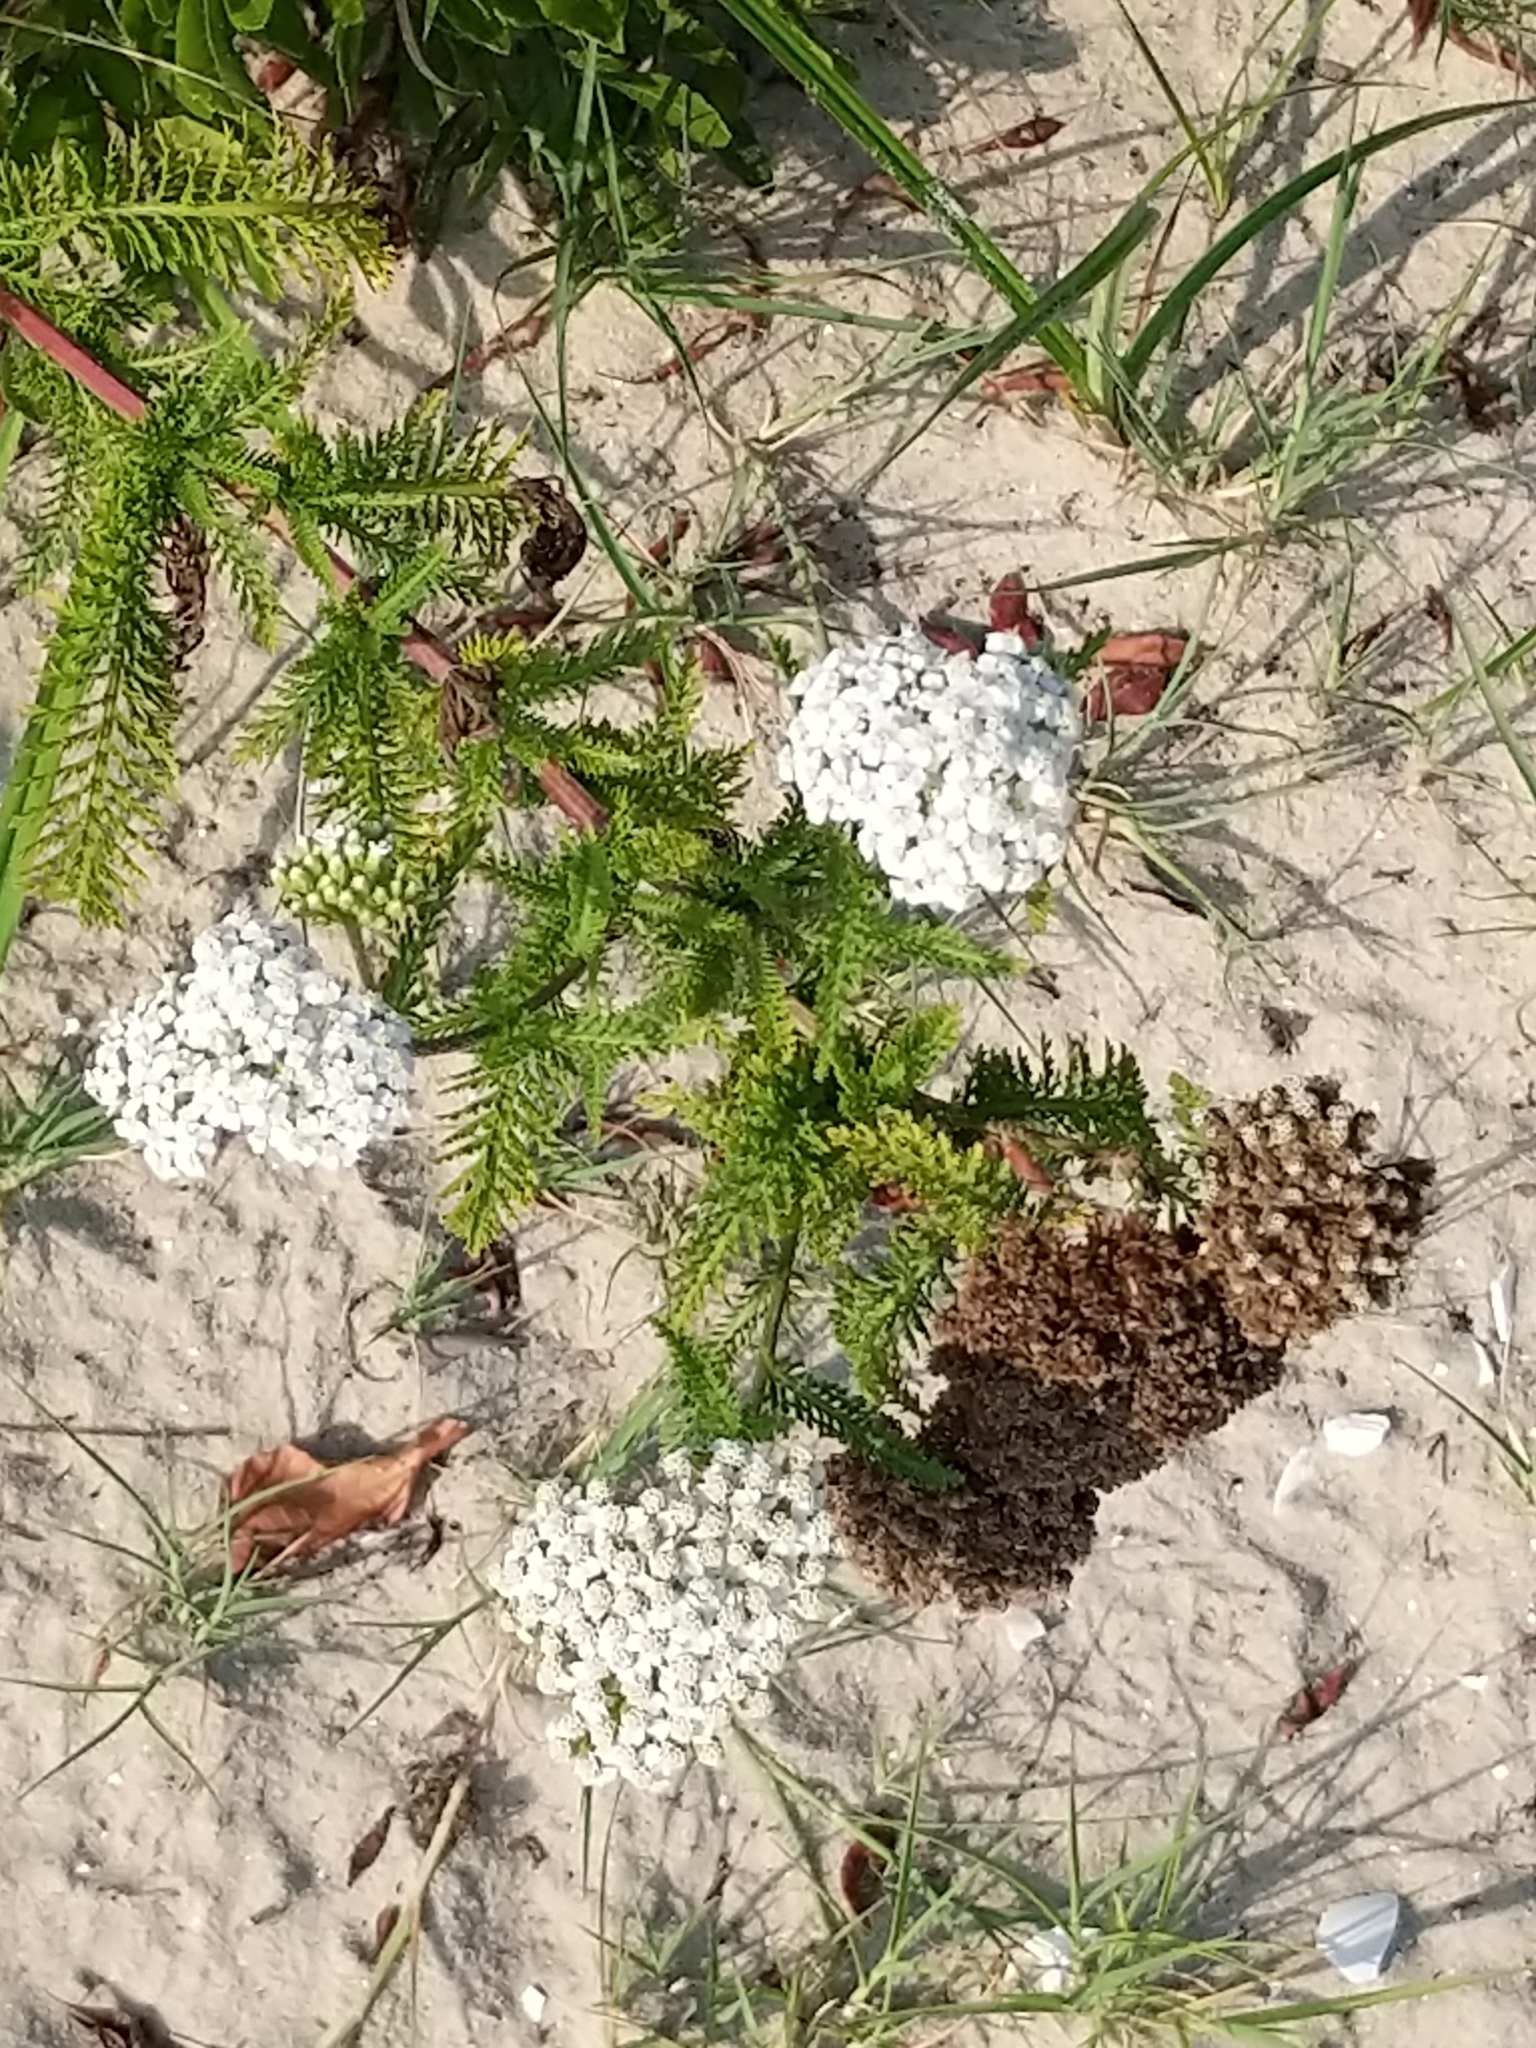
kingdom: Plantae
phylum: Tracheophyta
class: Magnoliopsida
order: Asterales
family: Asteraceae
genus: Achillea
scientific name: Achillea millefolium
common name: Yarrow
